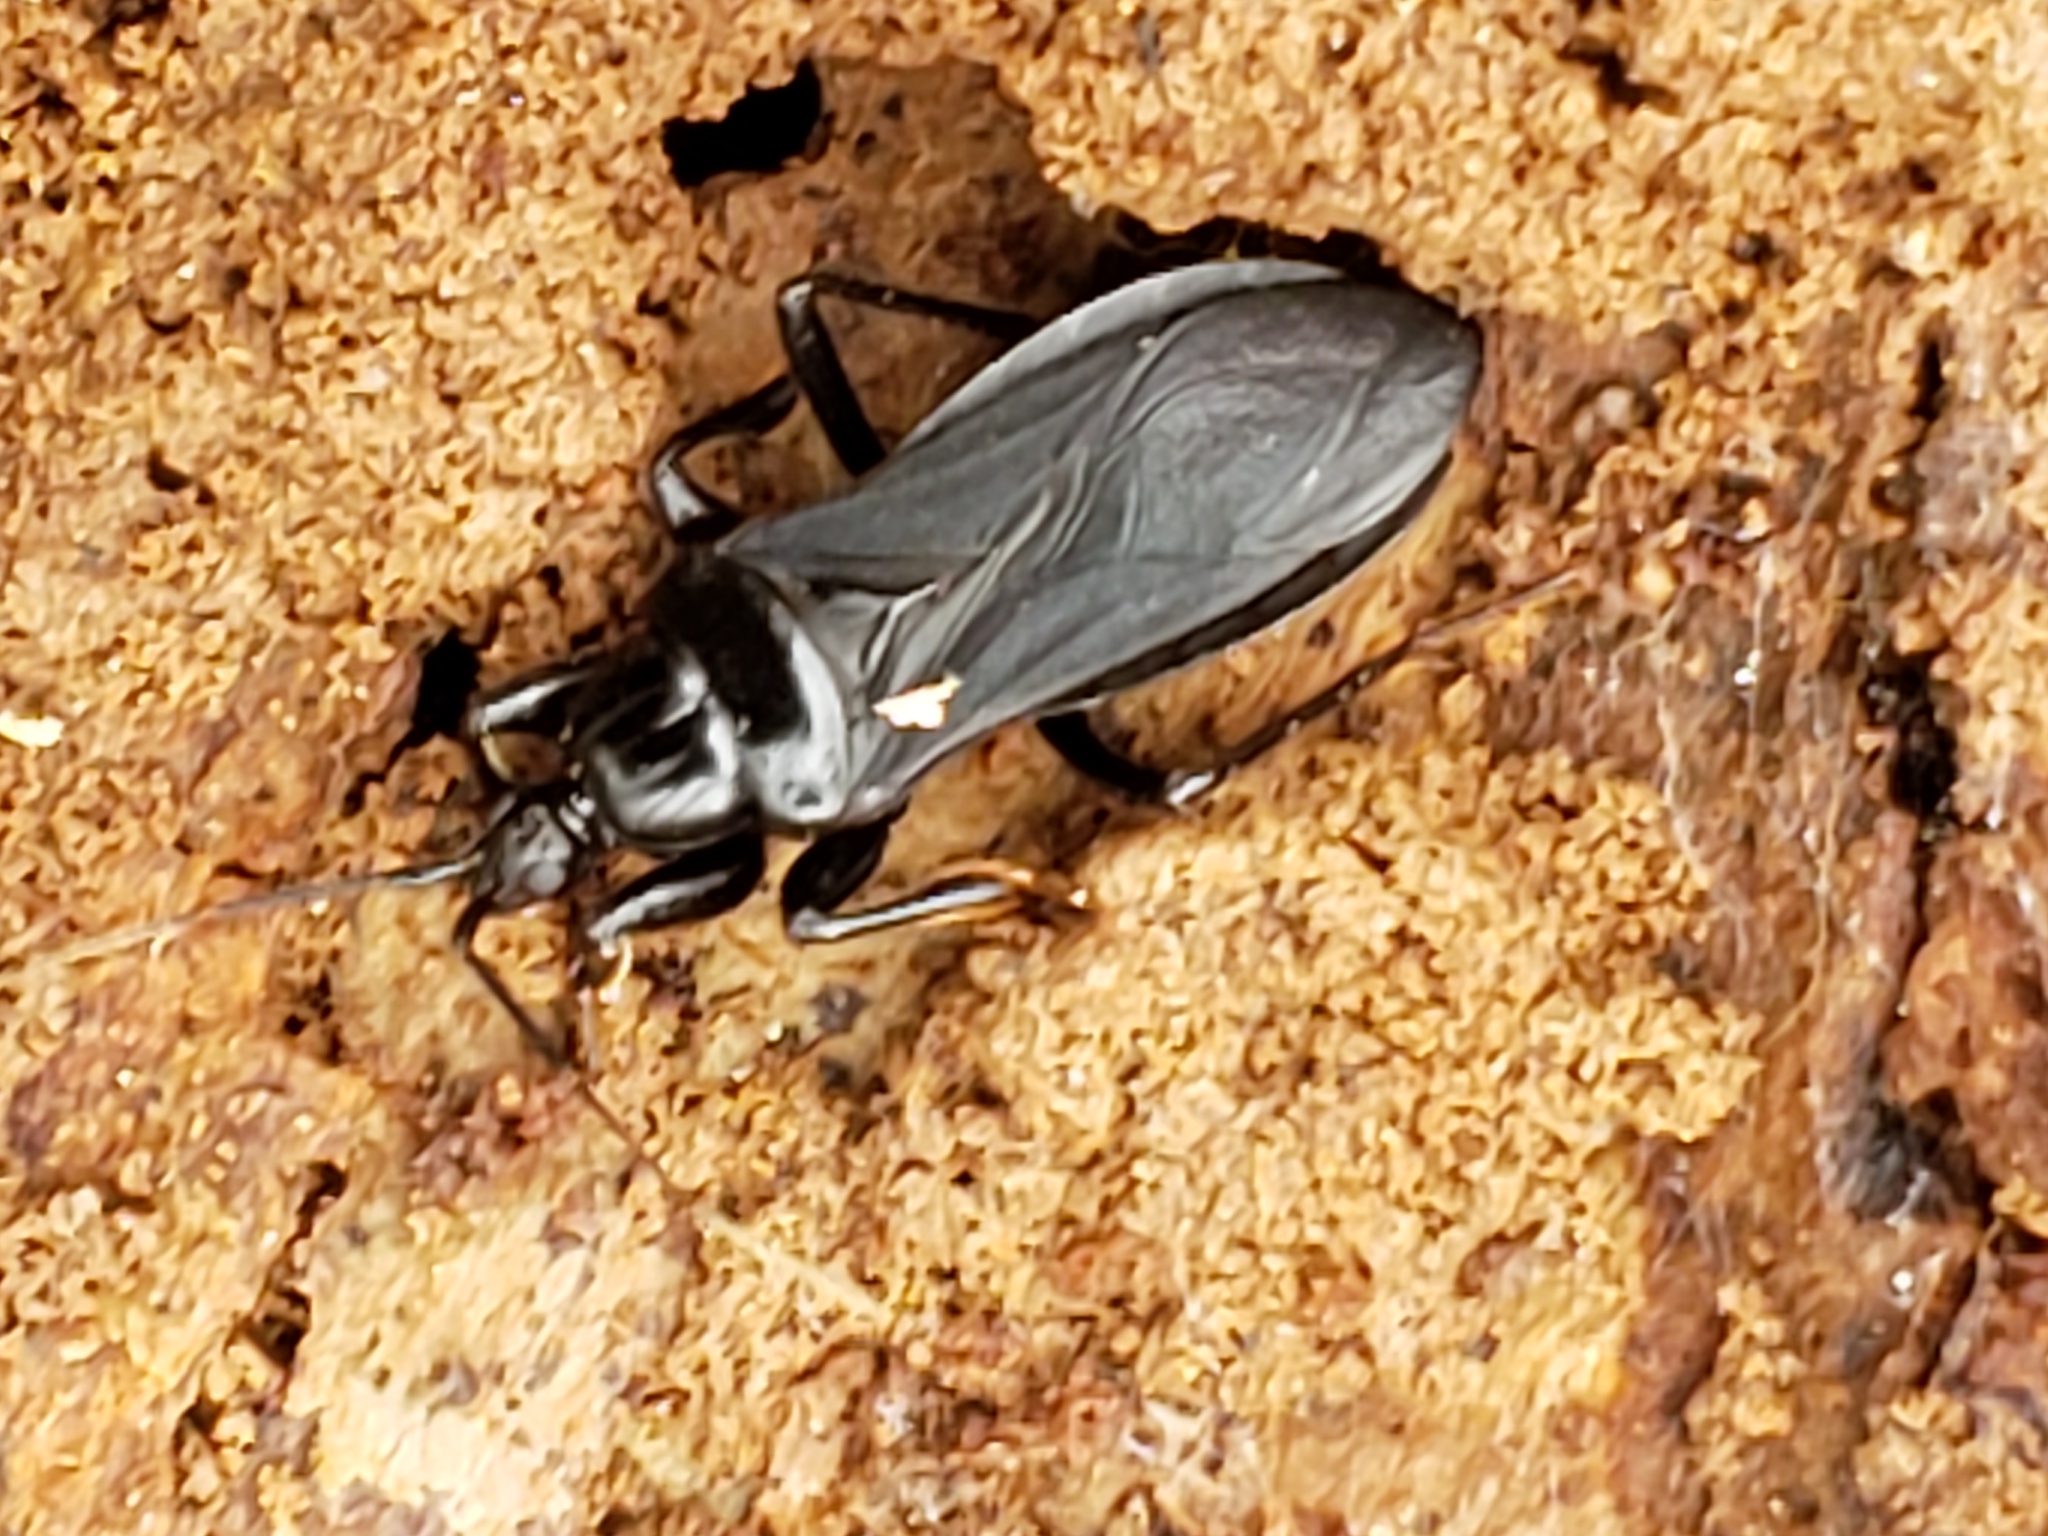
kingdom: Animalia
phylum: Arthropoda
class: Insecta
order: Hemiptera
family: Reduviidae
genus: Melanolestes
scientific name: Melanolestes picipes
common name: Assassin bug
